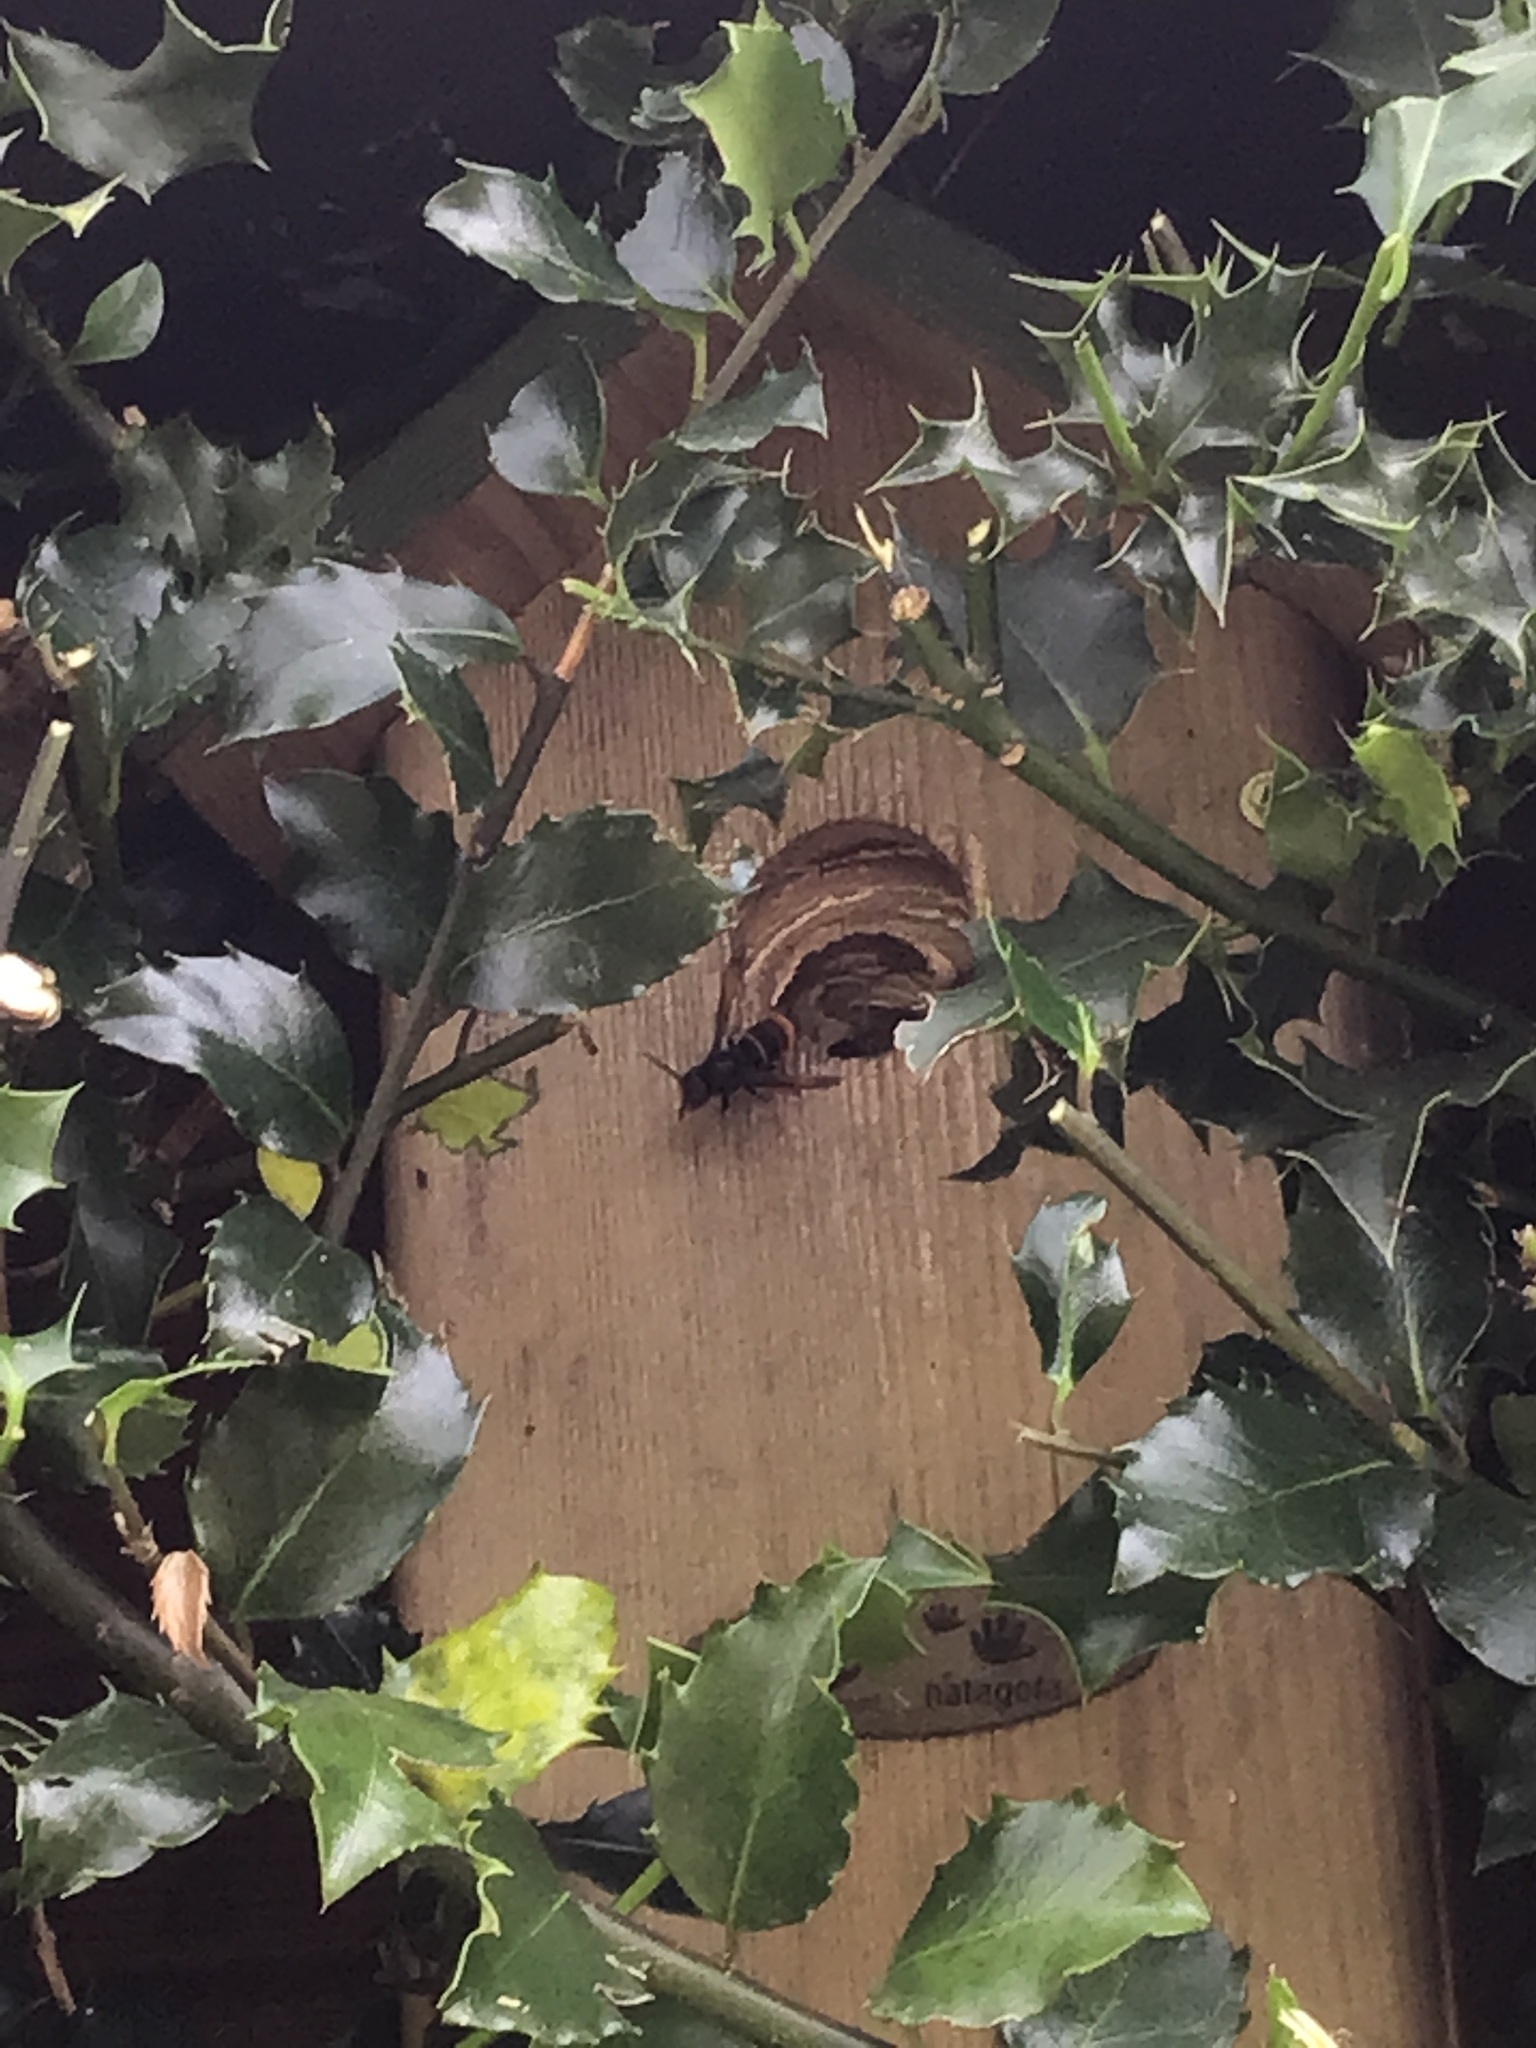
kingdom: Animalia
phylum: Arthropoda
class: Insecta
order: Hymenoptera
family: Vespidae
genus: Vespa
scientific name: Vespa velutina
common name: Asian hornet
